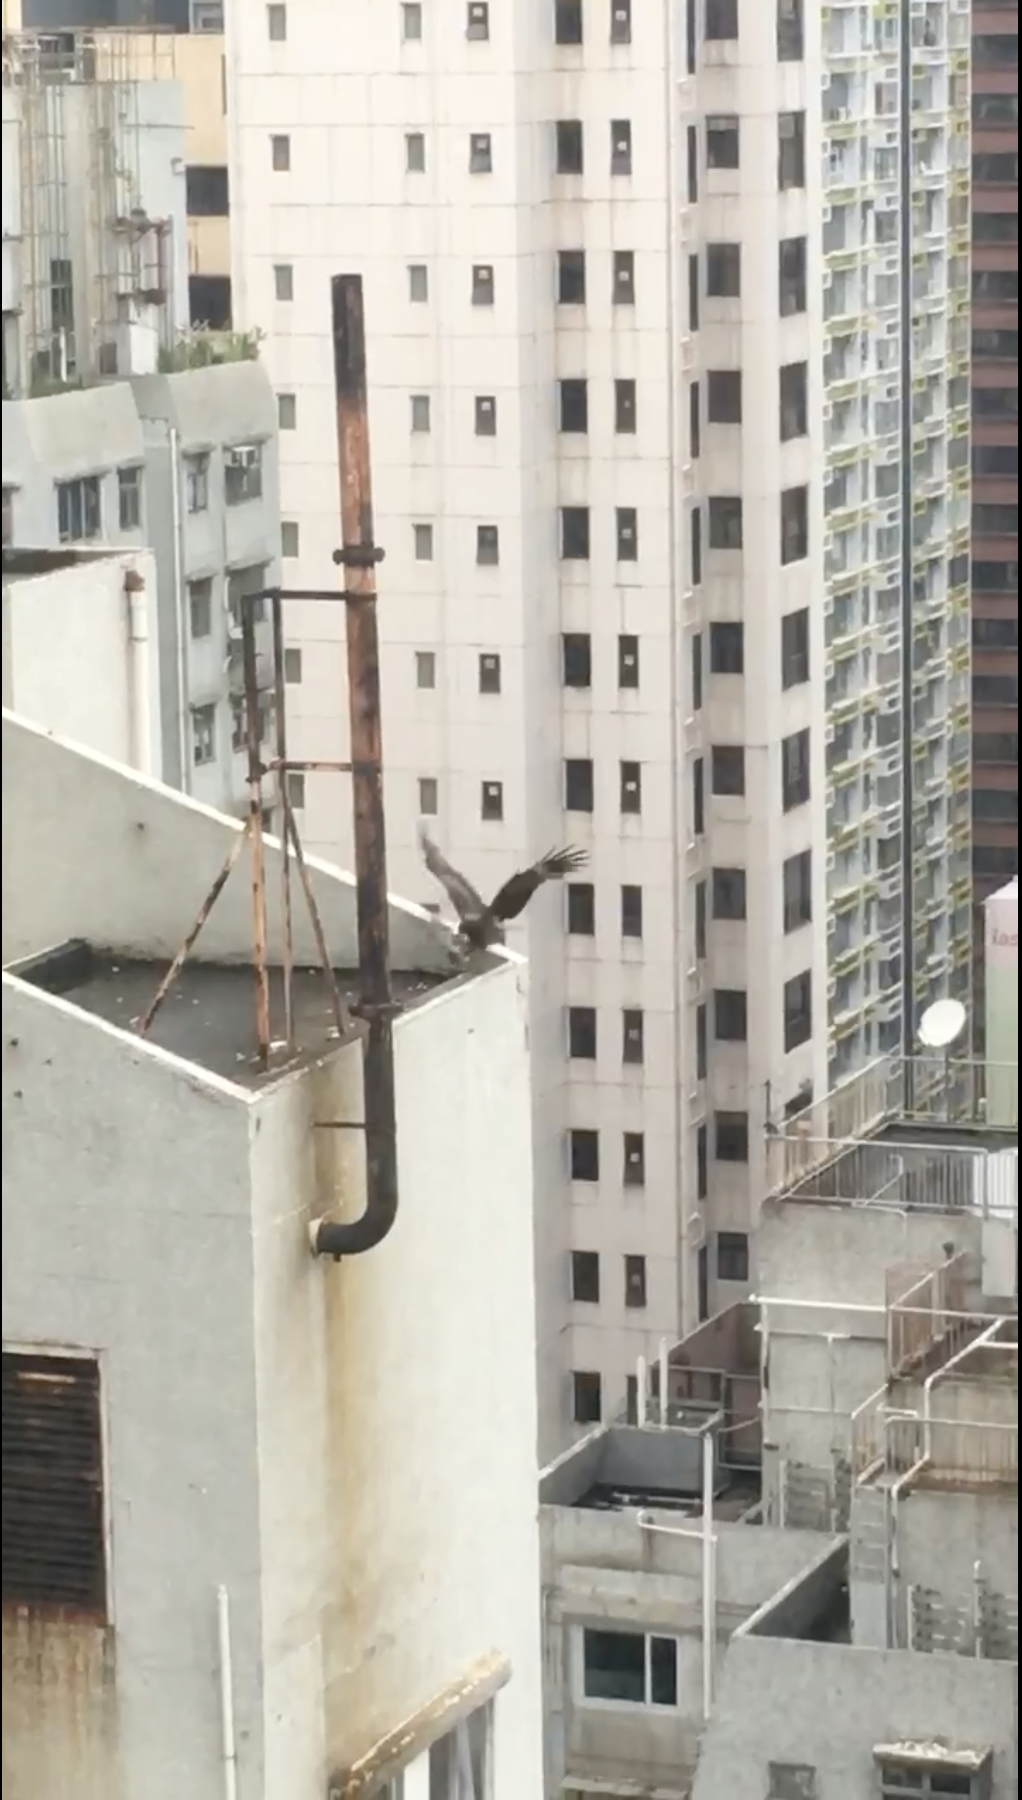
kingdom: Animalia
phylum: Chordata
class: Aves
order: Accipitriformes
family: Accipitridae
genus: Milvus
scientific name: Milvus migrans
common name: Black kite
